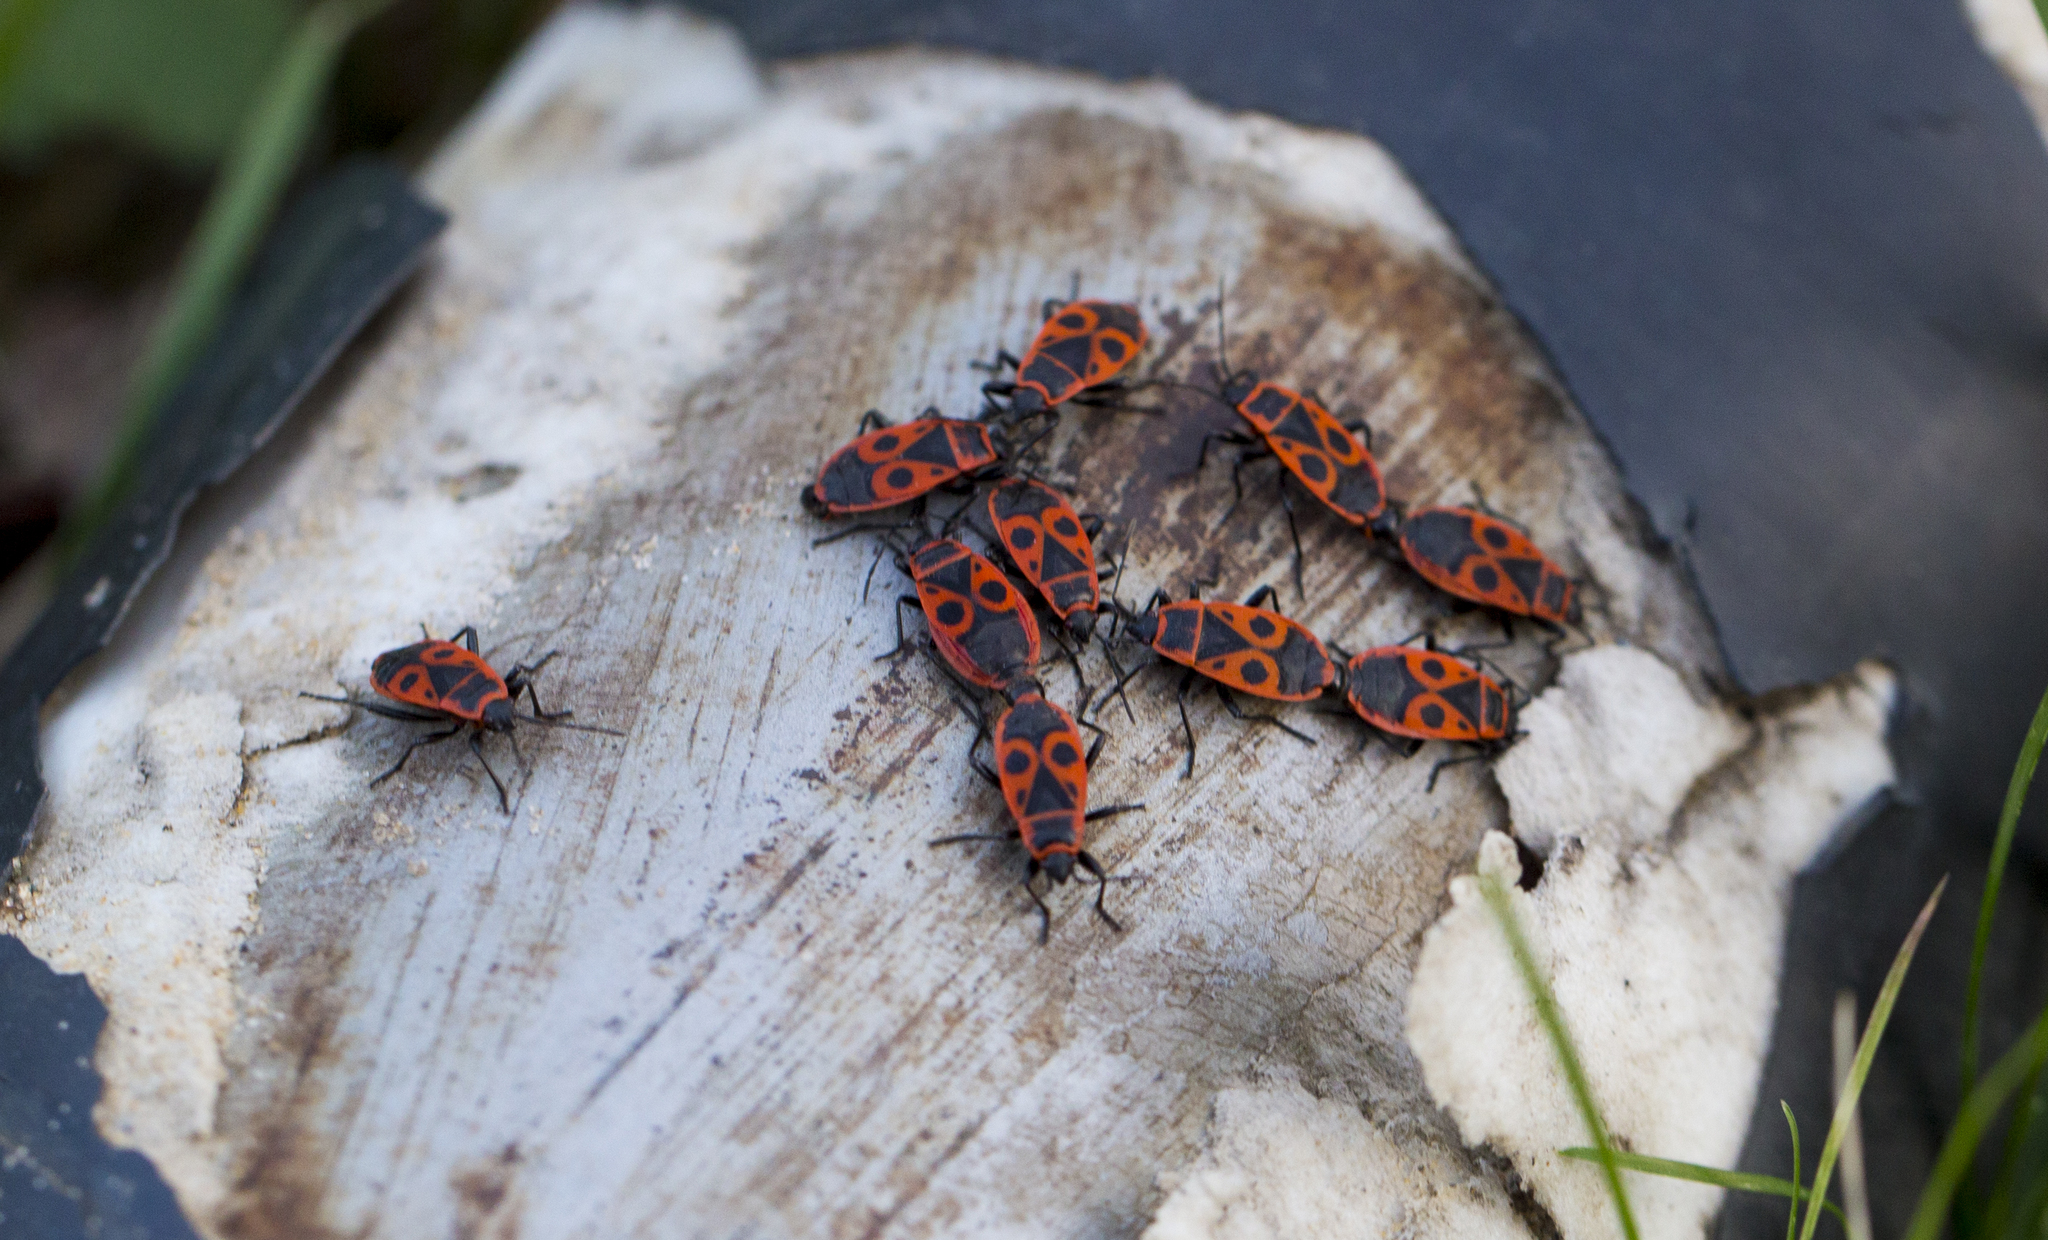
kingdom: Animalia
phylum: Arthropoda
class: Insecta
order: Hemiptera
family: Pyrrhocoridae
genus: Pyrrhocoris
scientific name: Pyrrhocoris apterus
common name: Firebug
